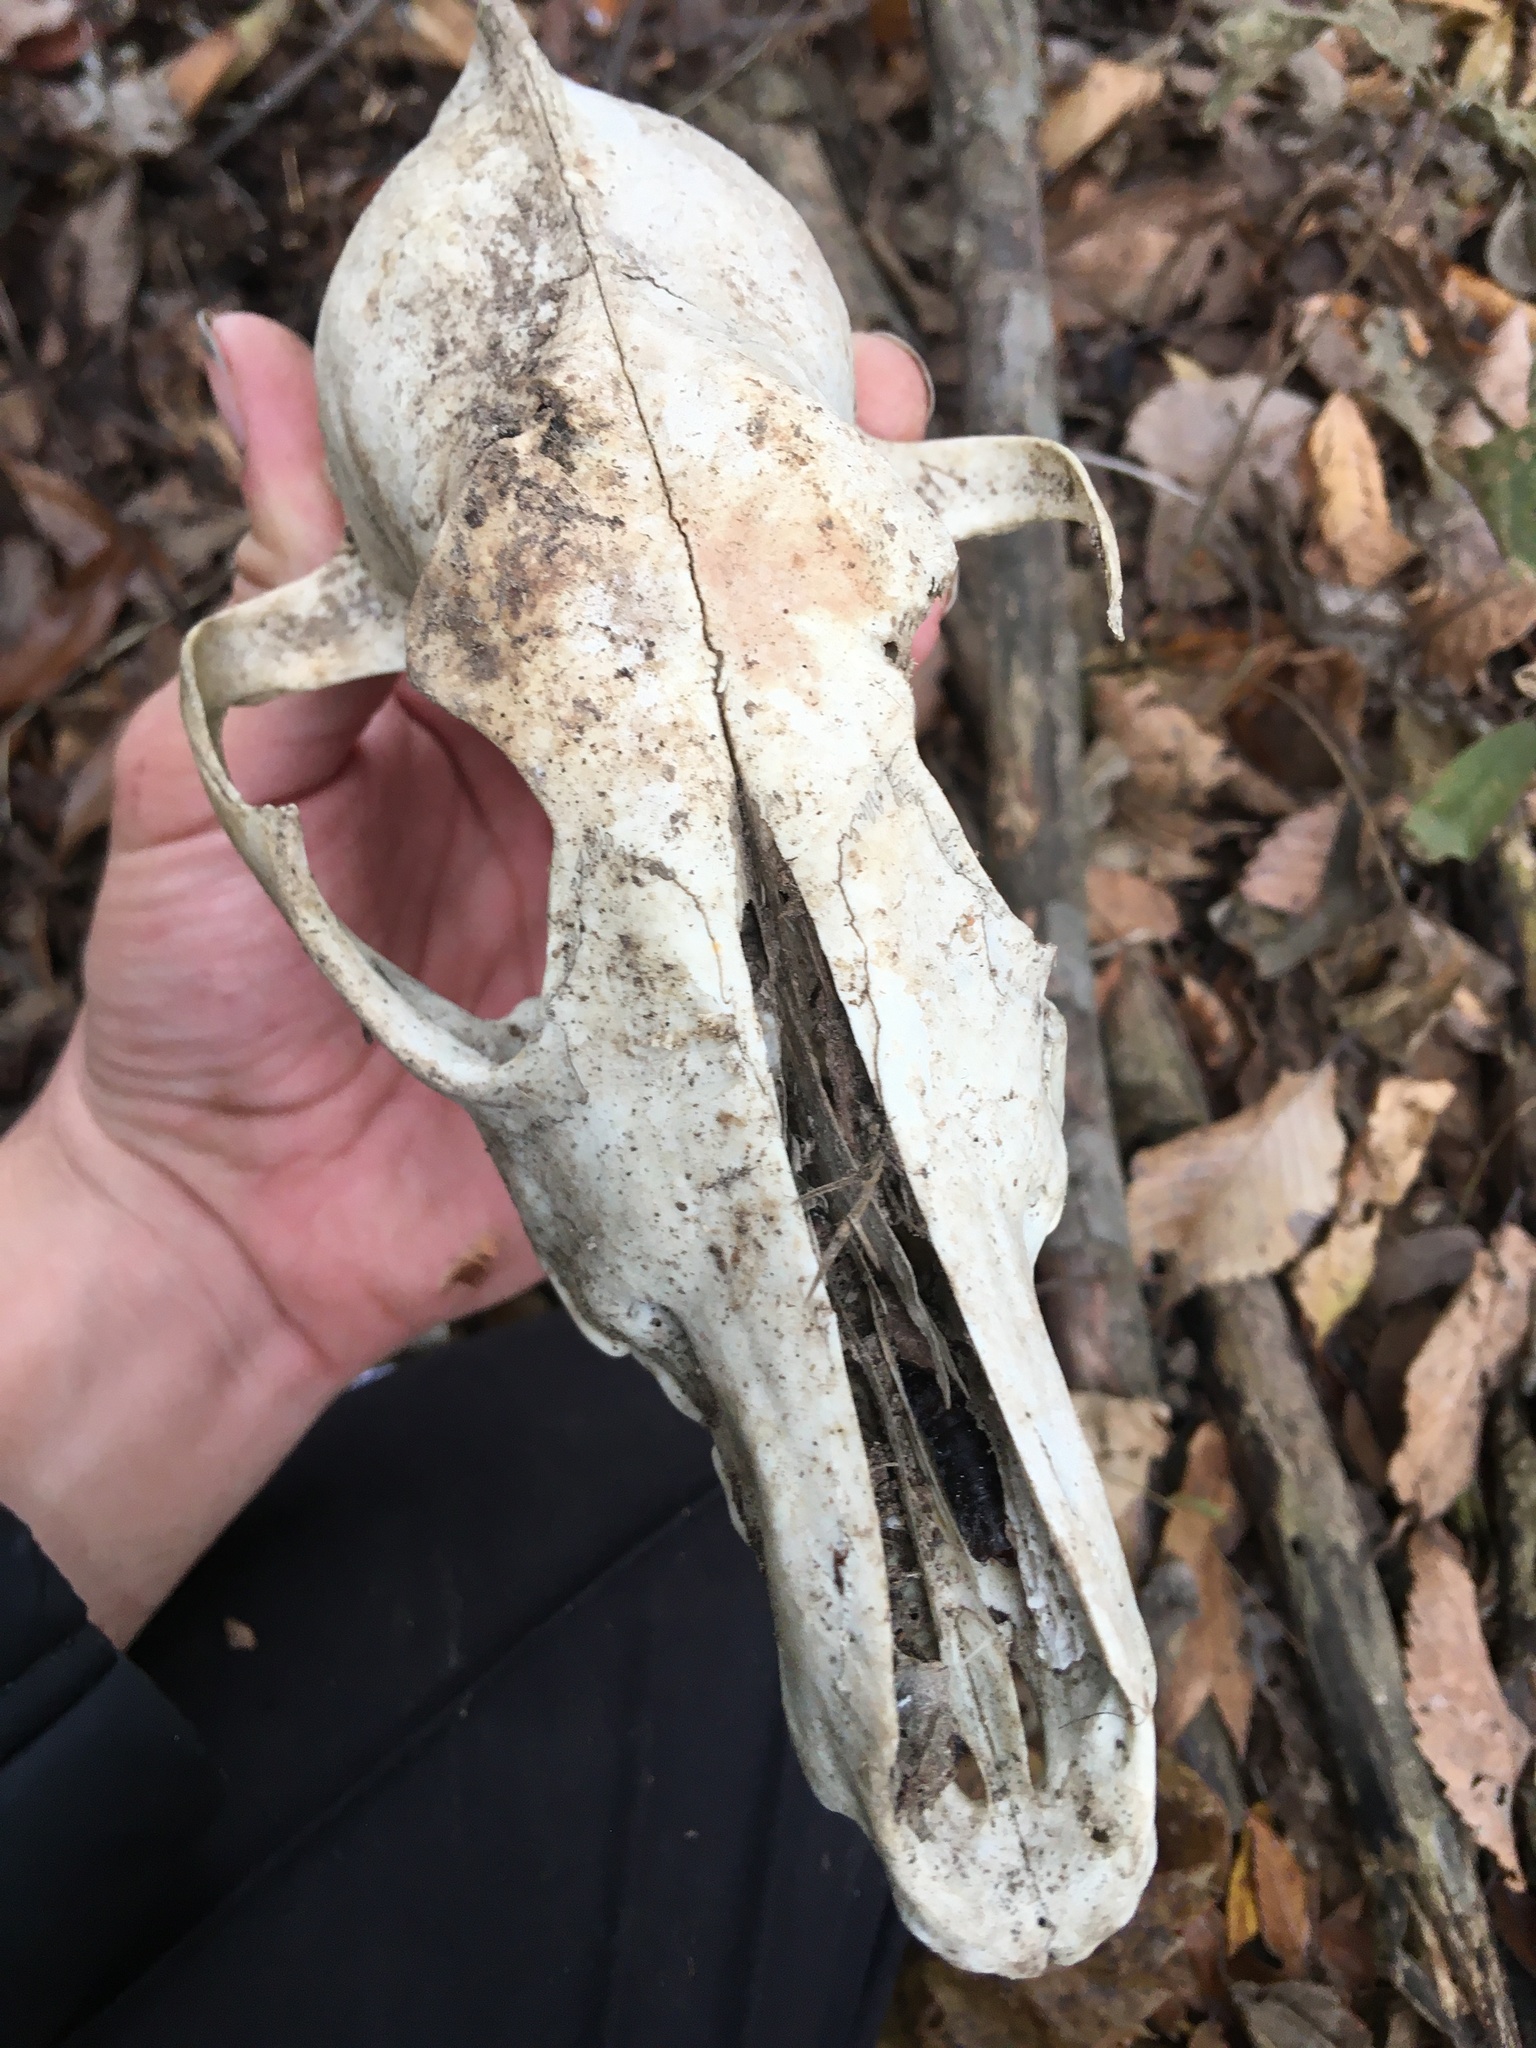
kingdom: Animalia
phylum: Chordata
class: Mammalia
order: Carnivora
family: Canidae
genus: Canis
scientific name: Canis latrans
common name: Coyote
